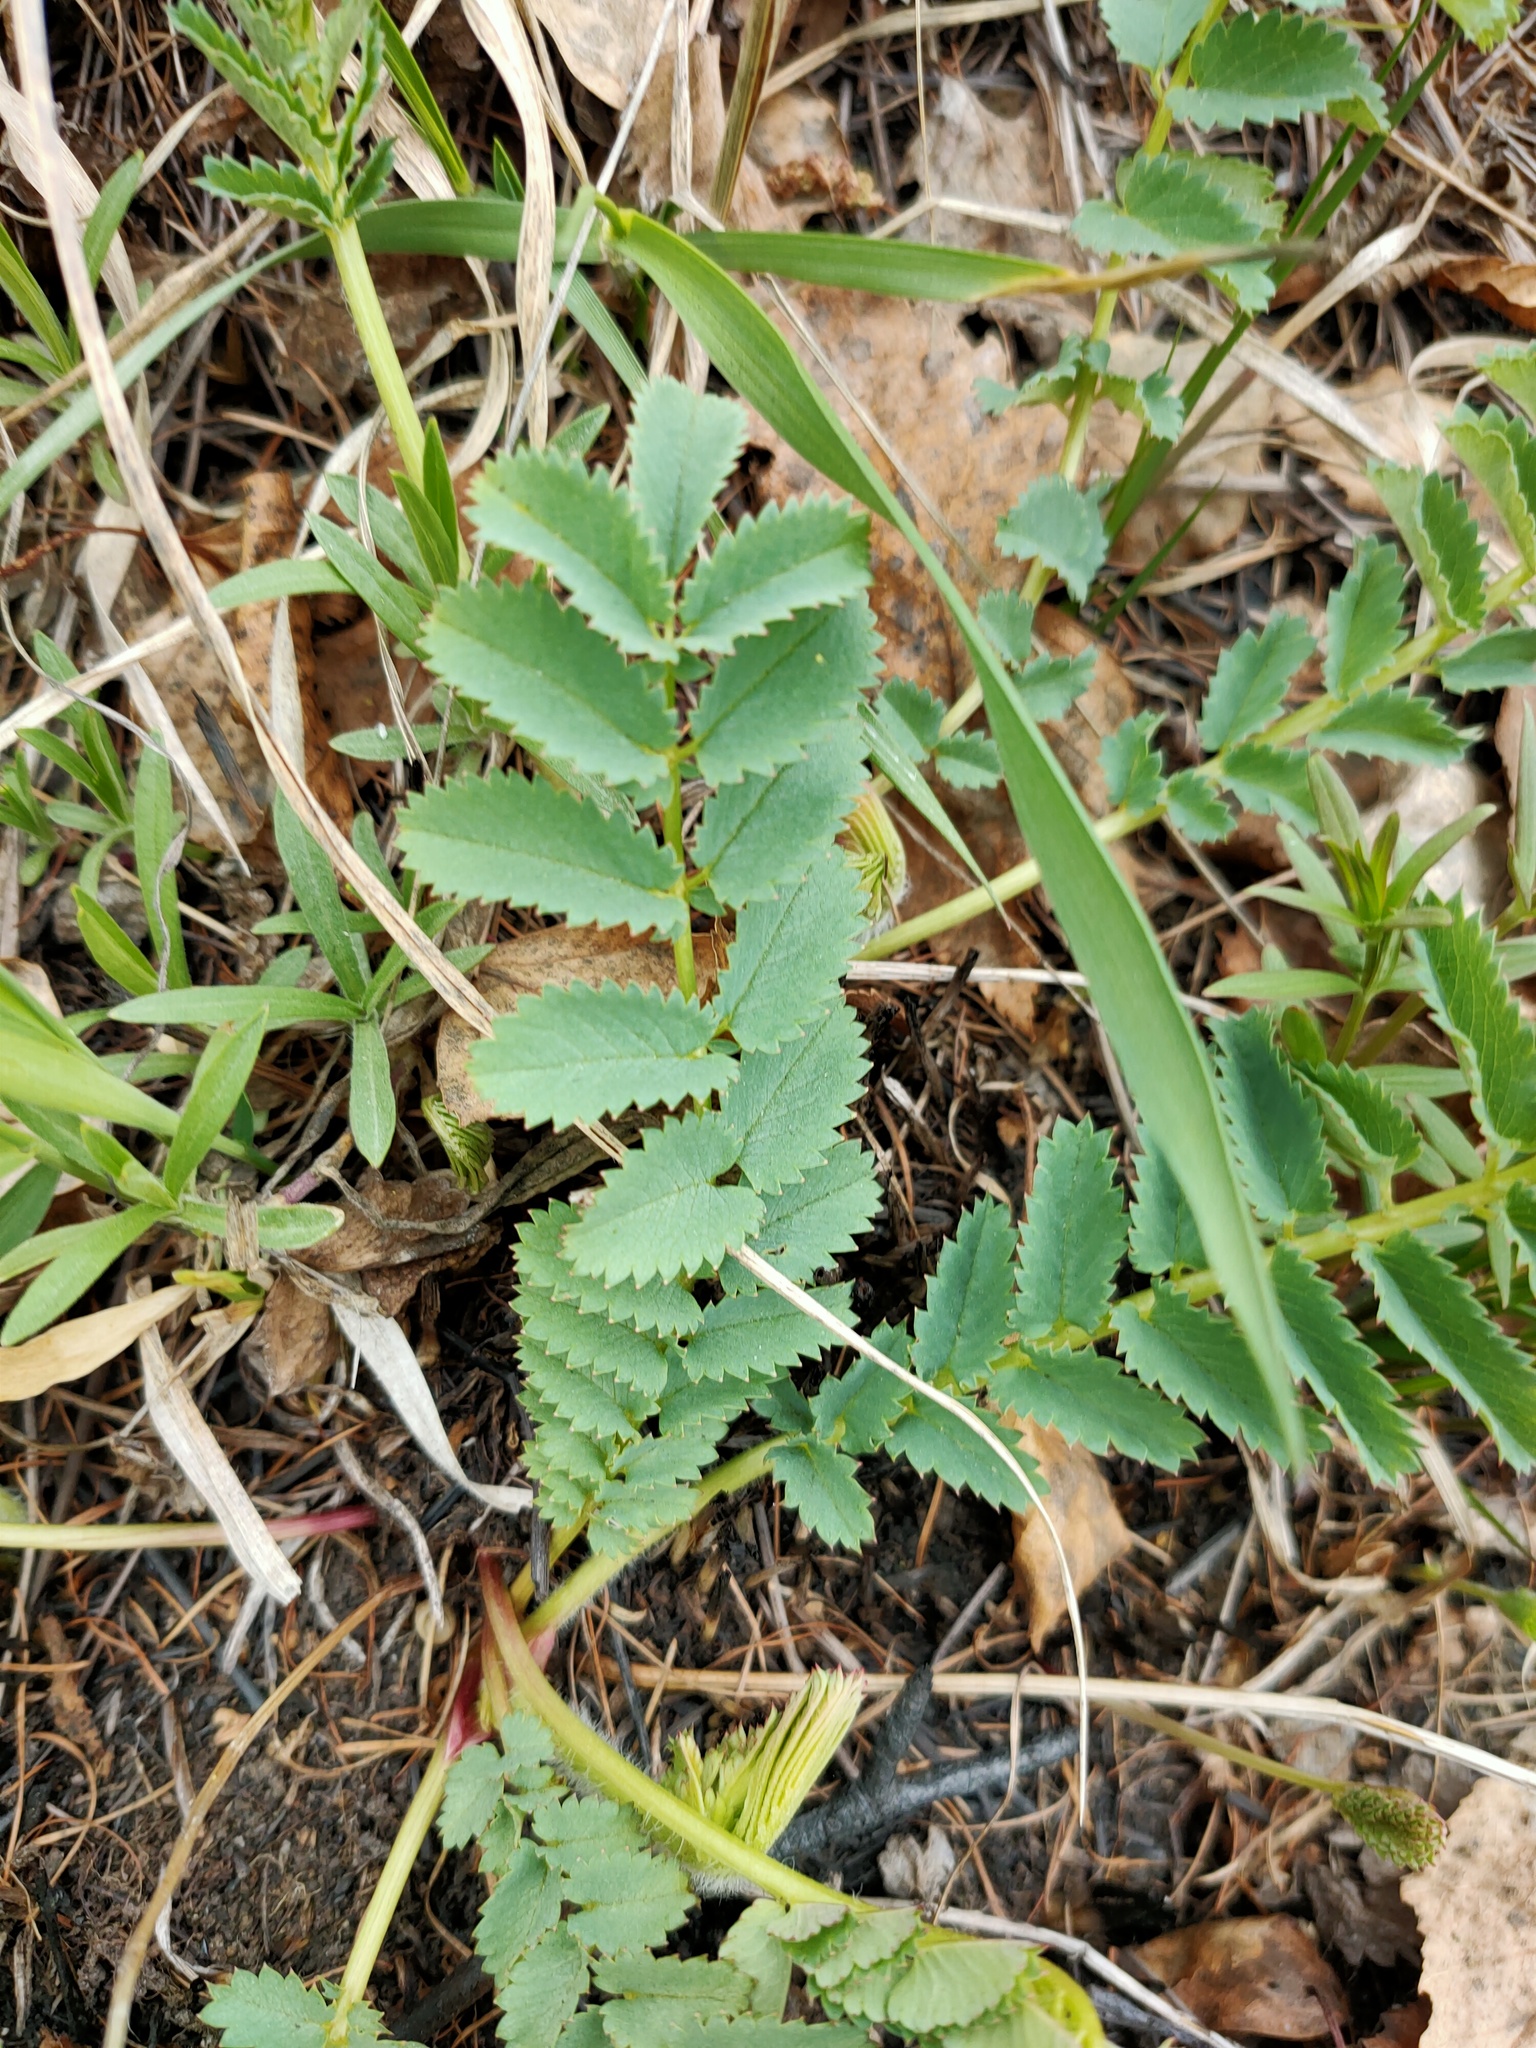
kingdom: Plantae
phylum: Tracheophyta
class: Magnoliopsida
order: Rosales
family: Rosaceae
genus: Sanguisorba
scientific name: Sanguisorba officinalis
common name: Great burnet
